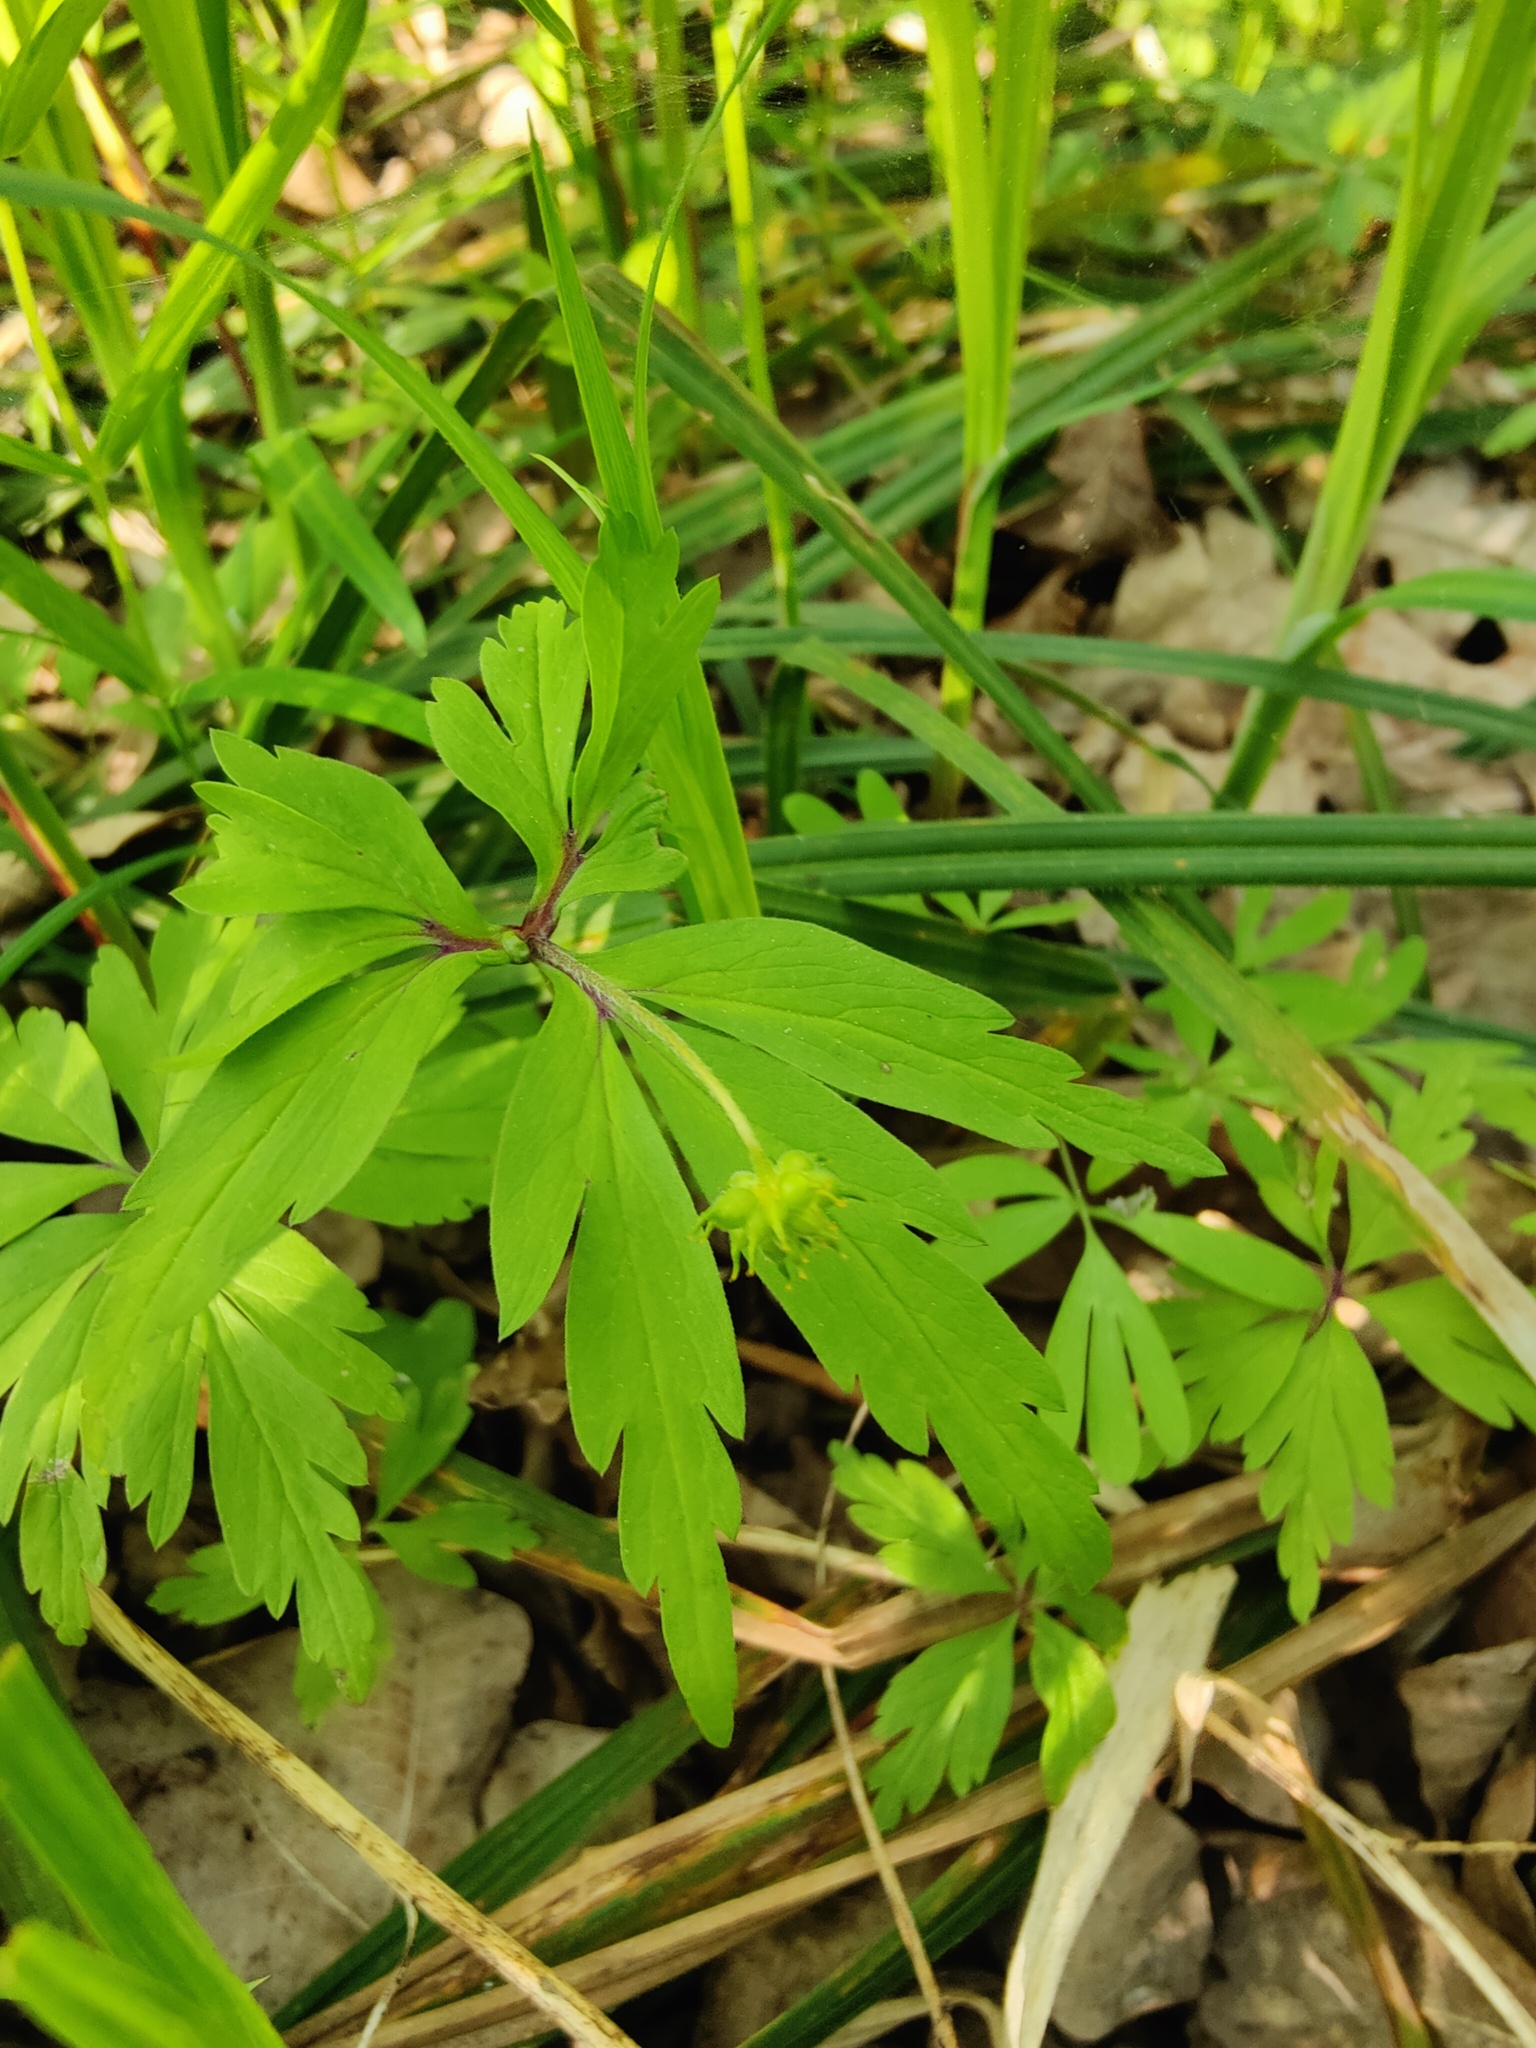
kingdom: Plantae
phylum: Tracheophyta
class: Magnoliopsida
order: Ranunculales
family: Ranunculaceae
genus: Anemone
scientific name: Anemone ranunculoides
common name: Yellow anemone
